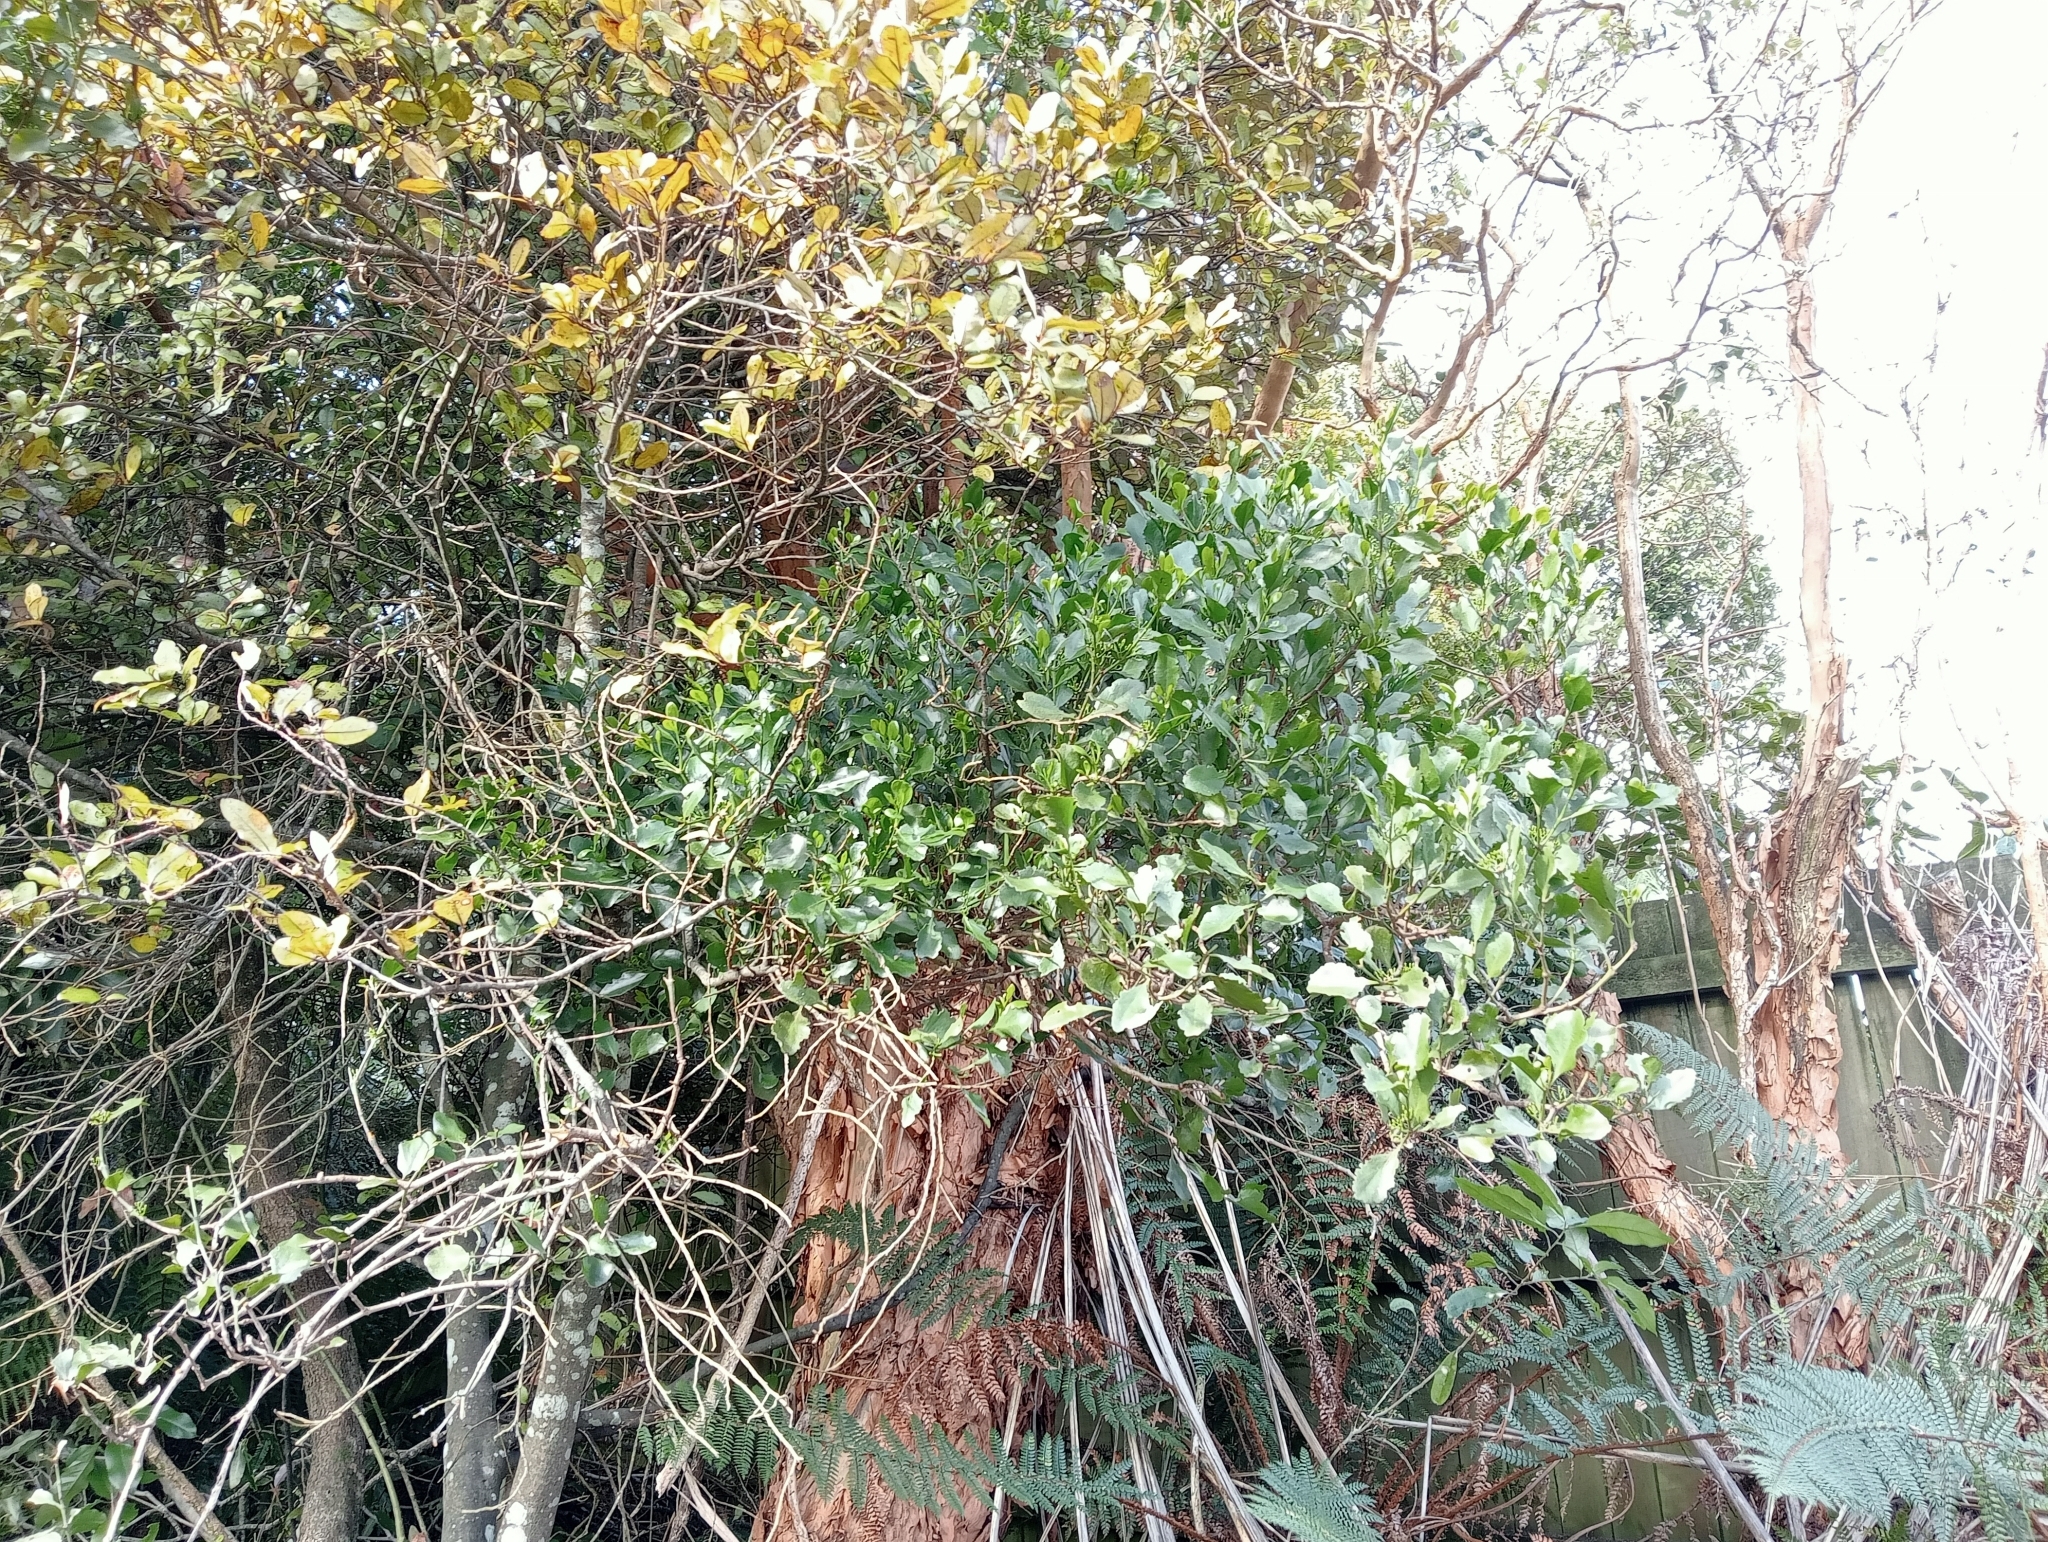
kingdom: Plantae
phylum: Tracheophyta
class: Magnoliopsida
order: Santalales
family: Loranthaceae
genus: Ileostylus
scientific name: Ileostylus micranthus
